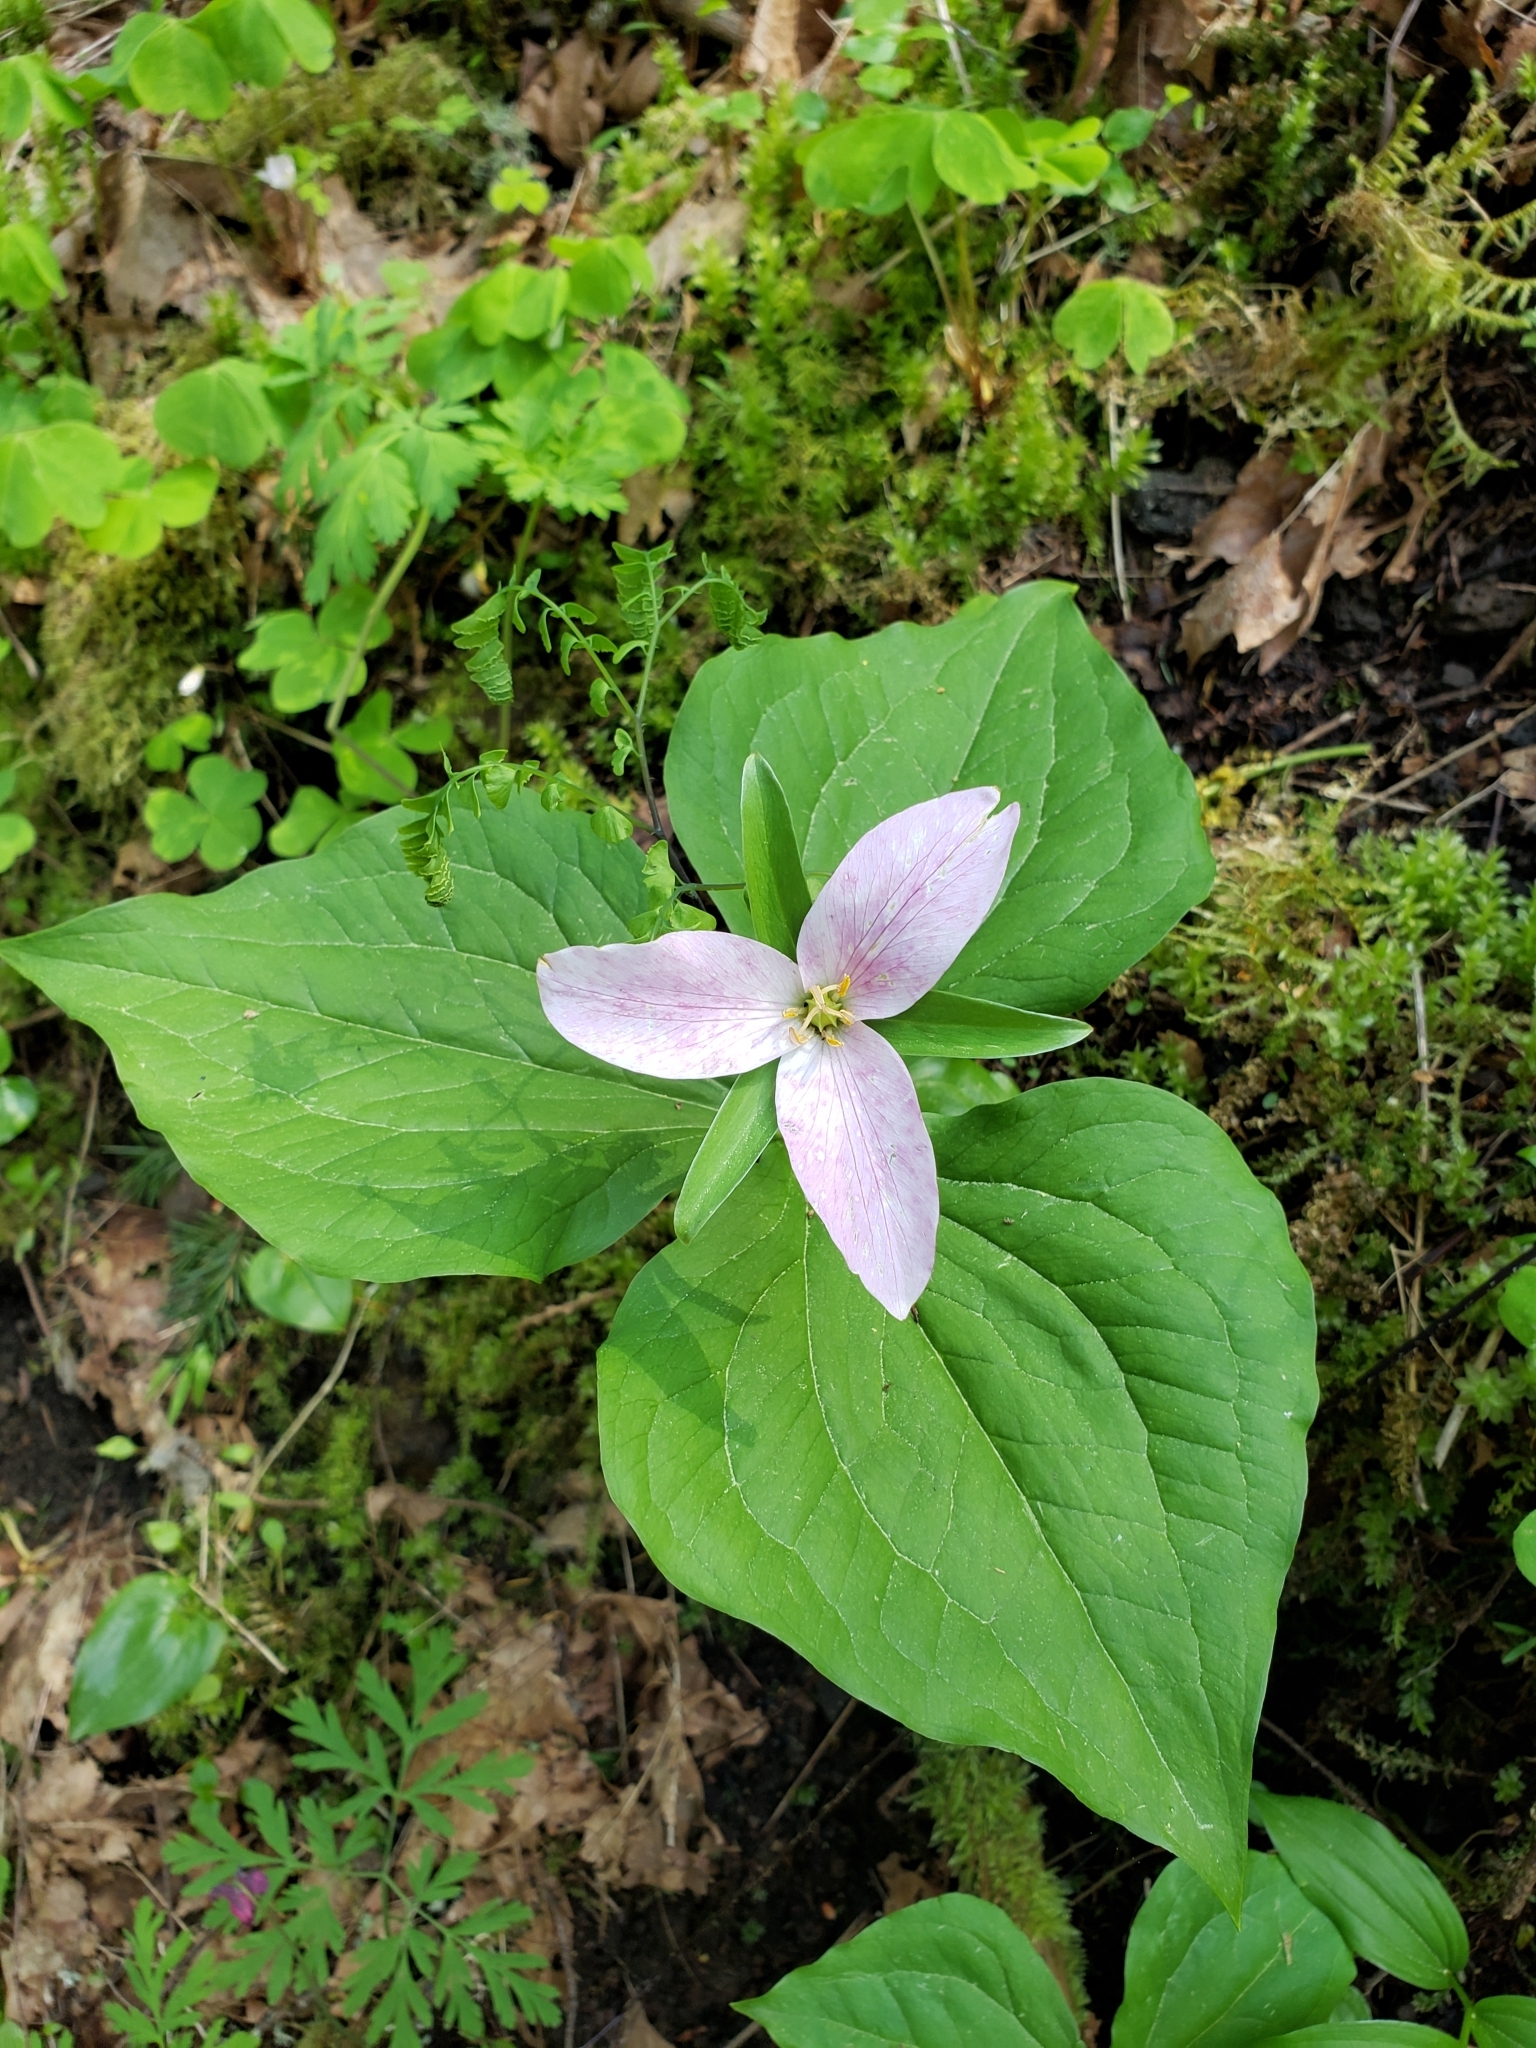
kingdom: Plantae
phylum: Tracheophyta
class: Liliopsida
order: Liliales
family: Melanthiaceae
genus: Trillium
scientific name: Trillium ovatum
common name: Pacific trillium
